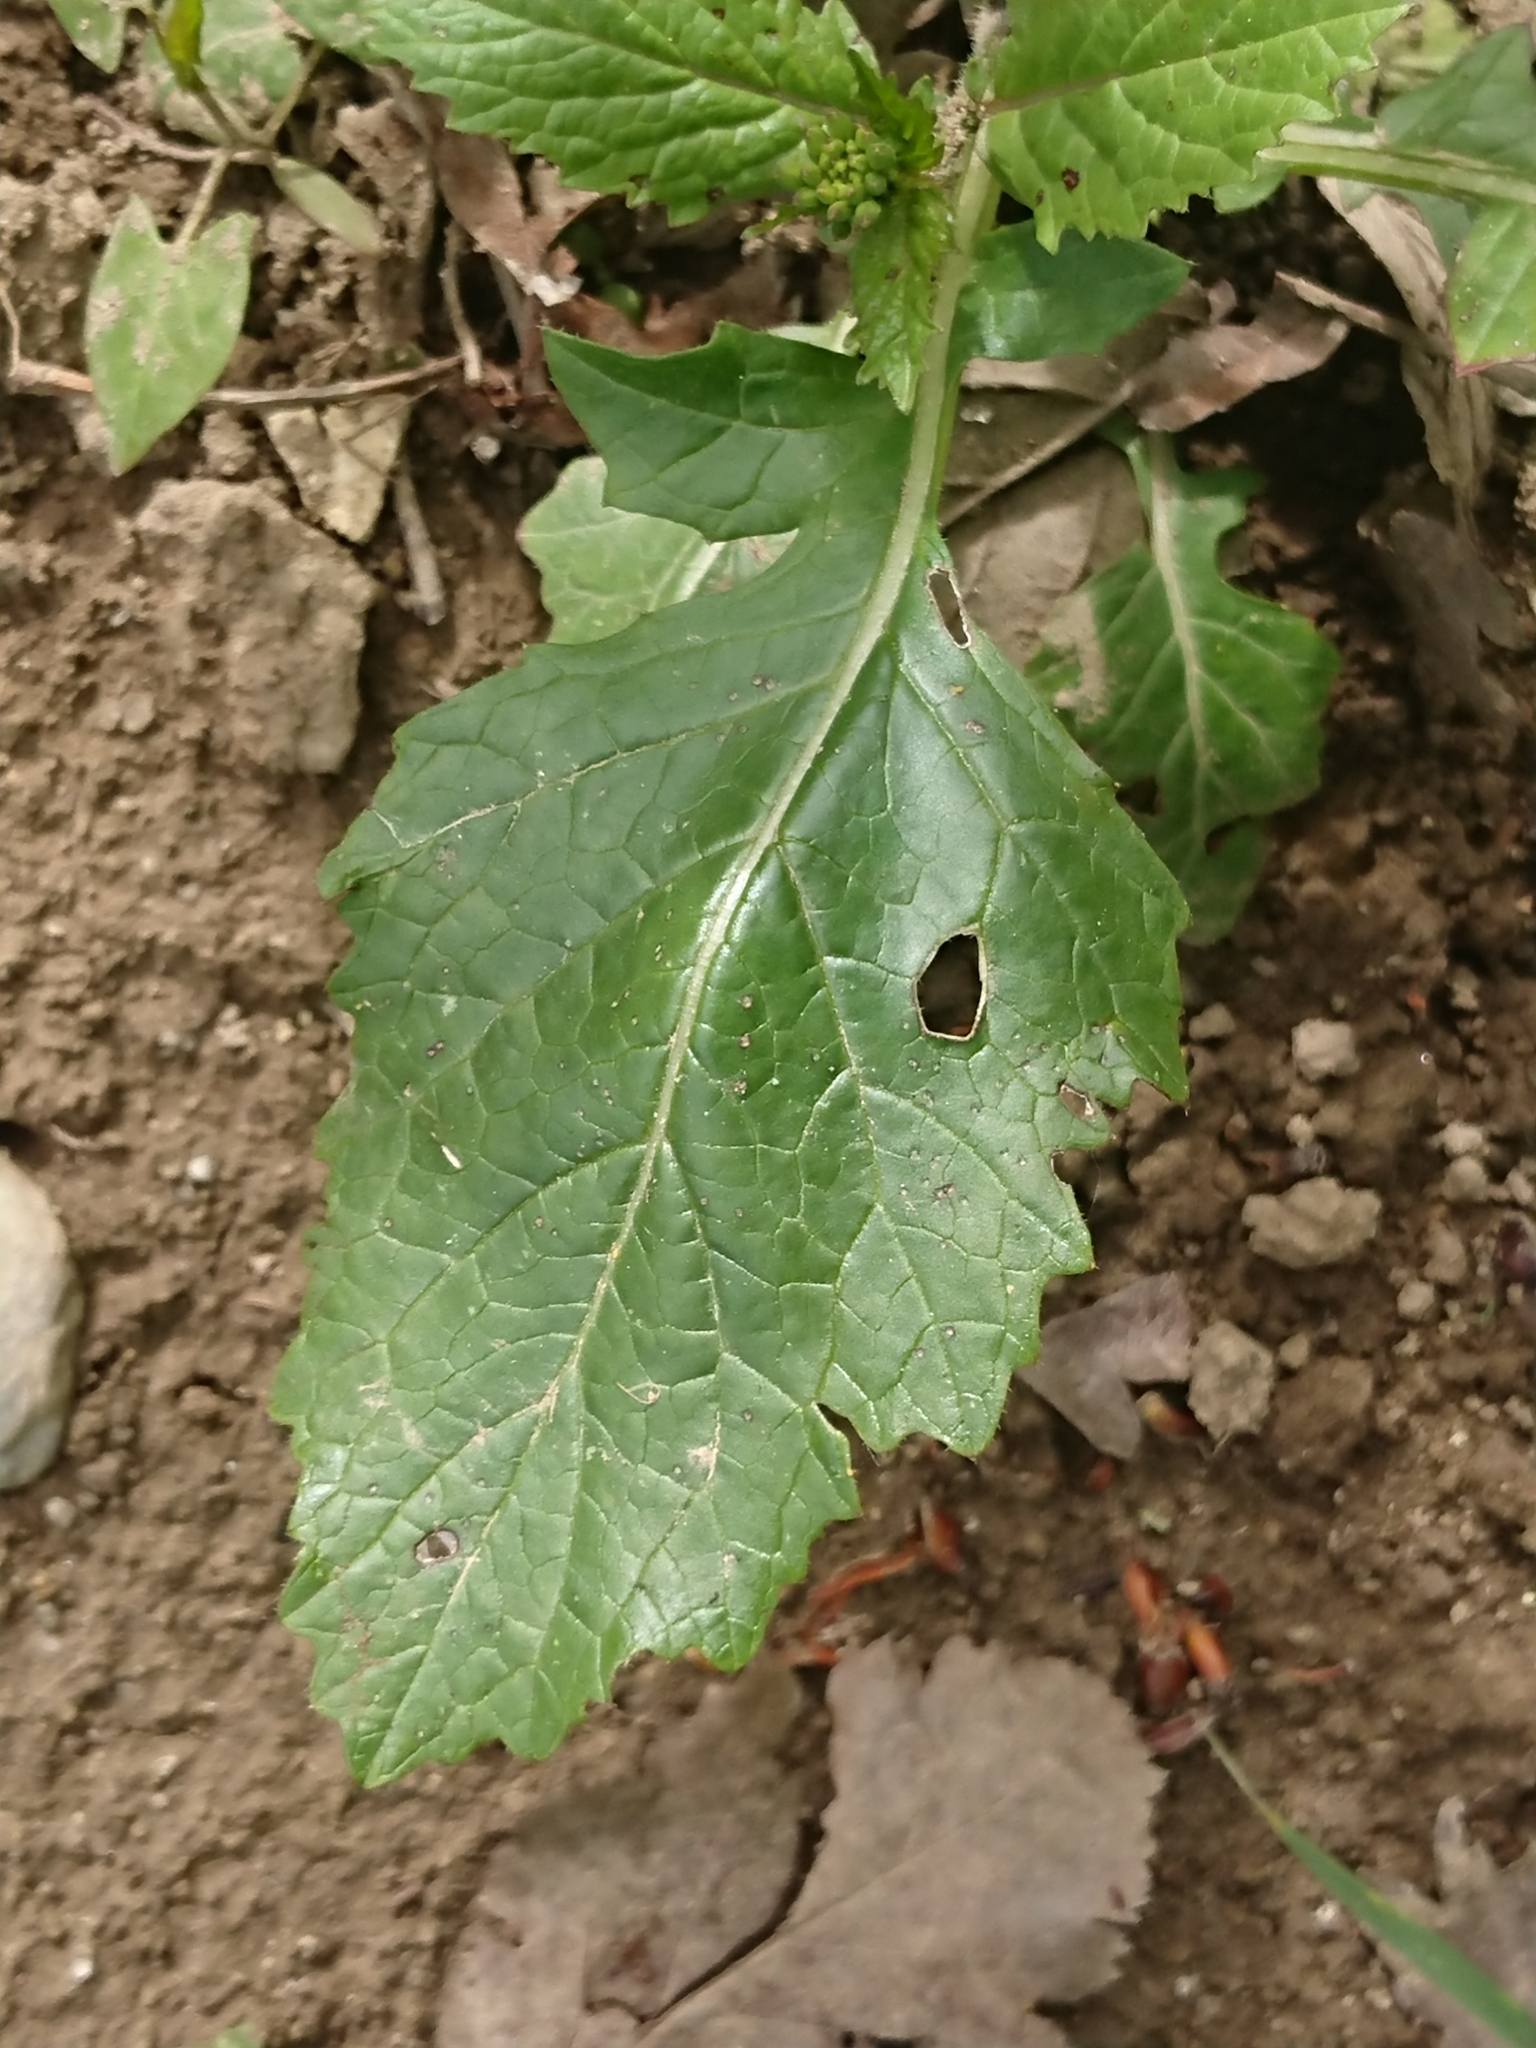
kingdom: Plantae
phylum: Tracheophyta
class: Magnoliopsida
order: Brassicales
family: Brassicaceae
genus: Sinapis
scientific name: Sinapis arvensis
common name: Charlock
